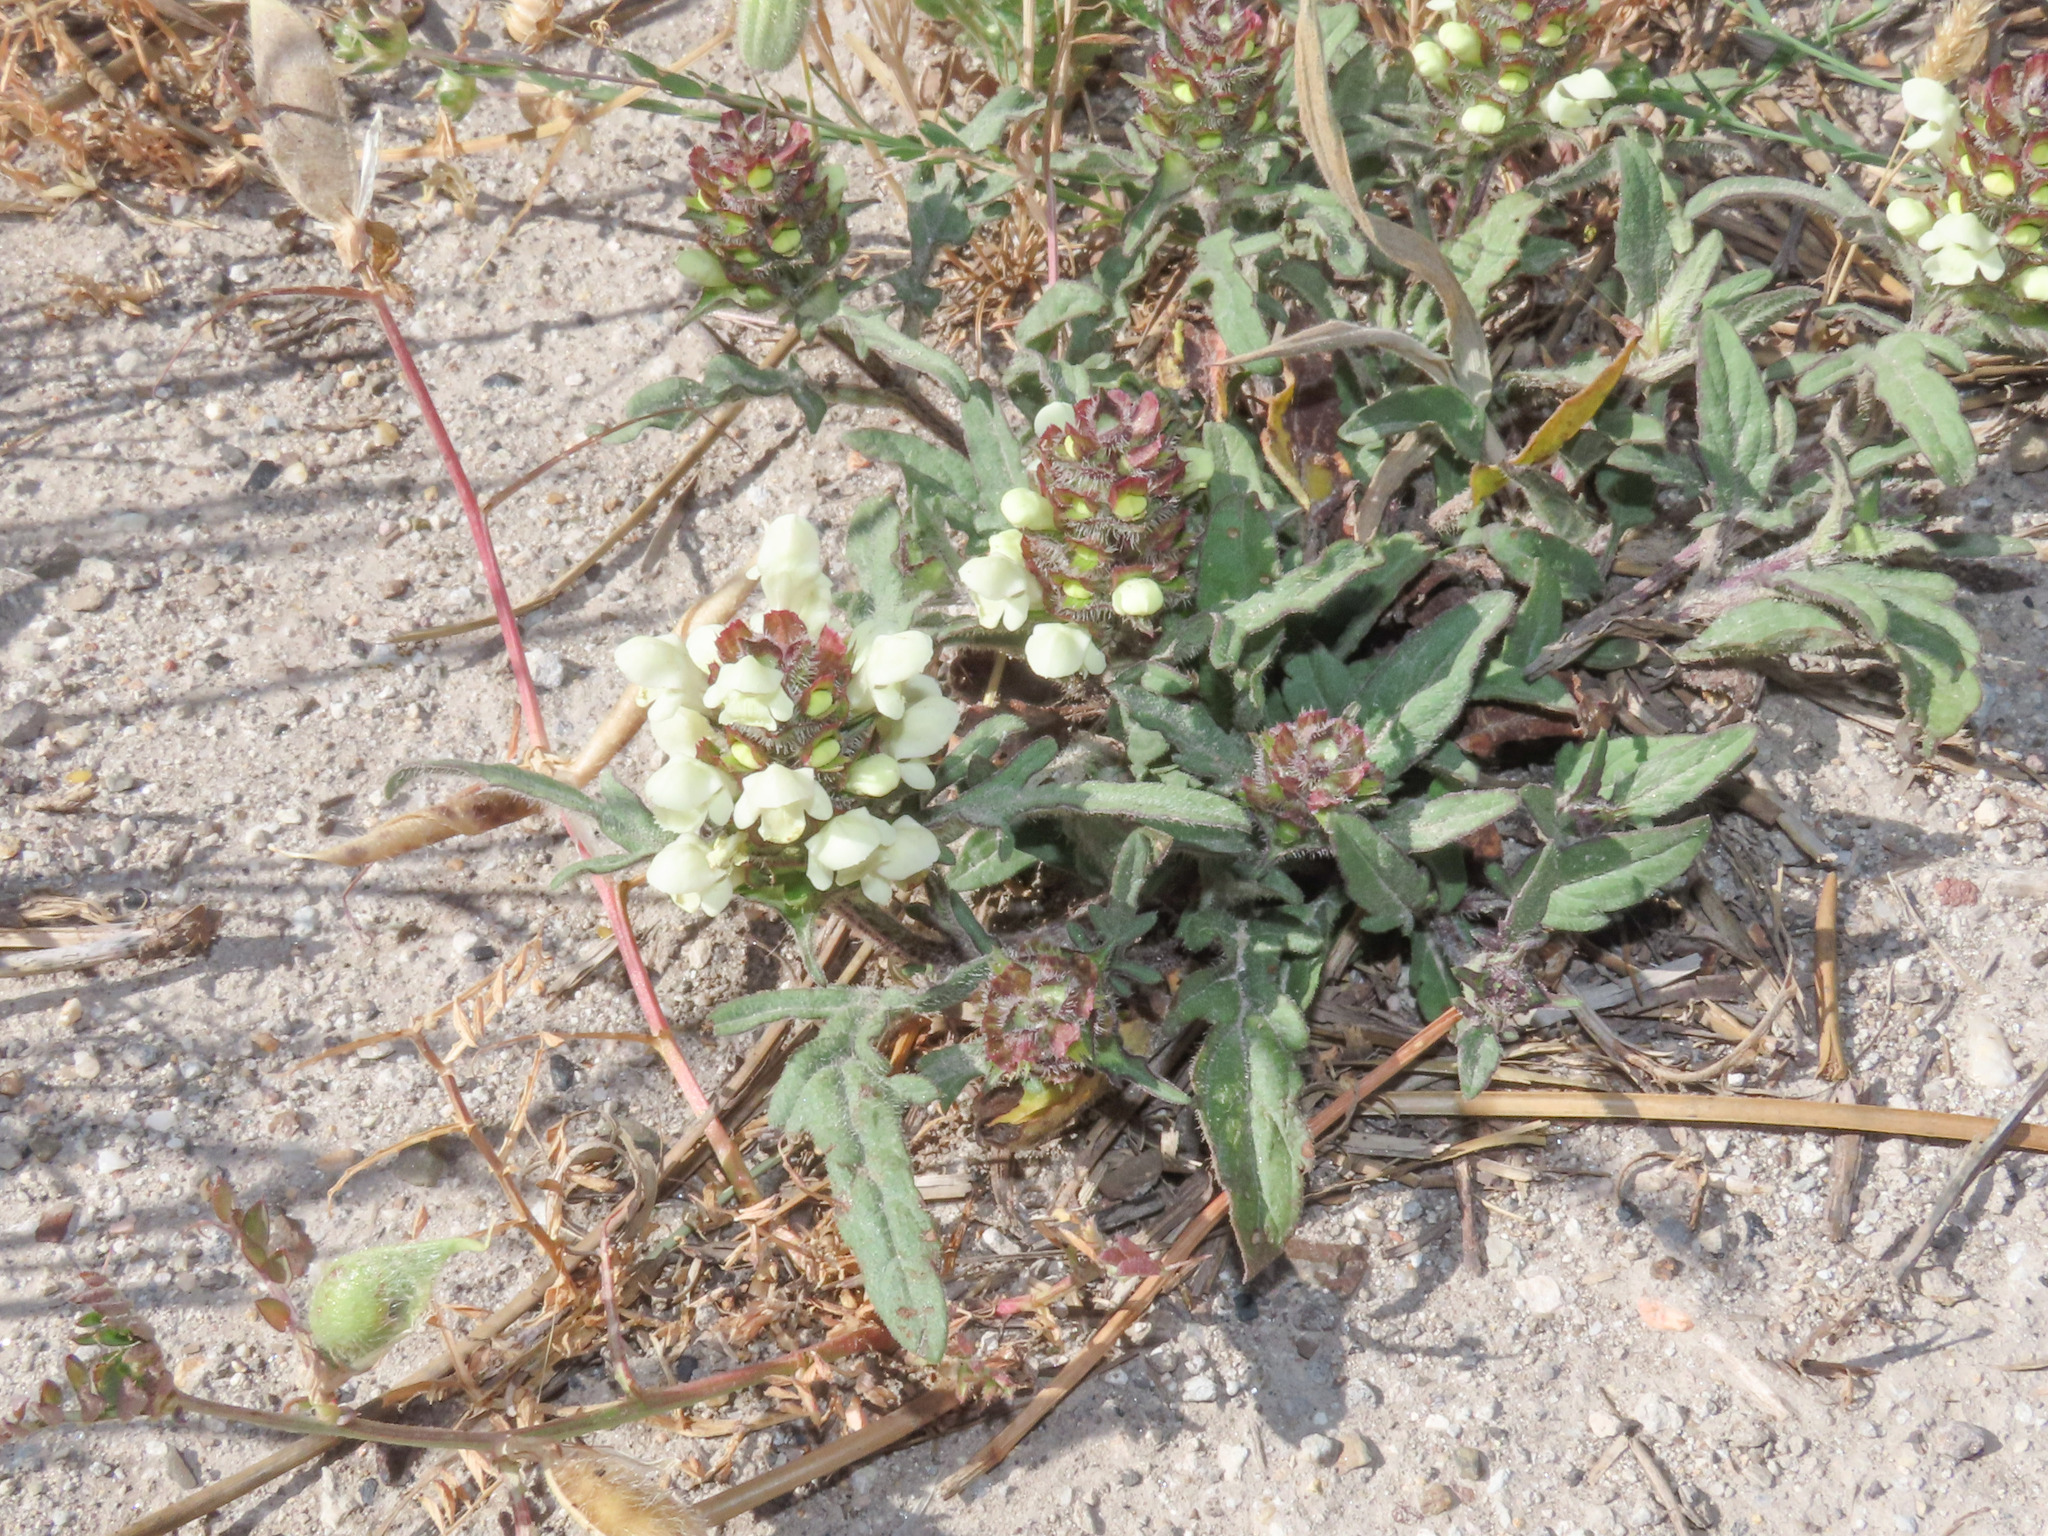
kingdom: Plantae
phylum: Tracheophyta
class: Magnoliopsida
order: Lamiales
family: Lamiaceae
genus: Prunella
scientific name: Prunella laciniata
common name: Cut-leaved selfheal
